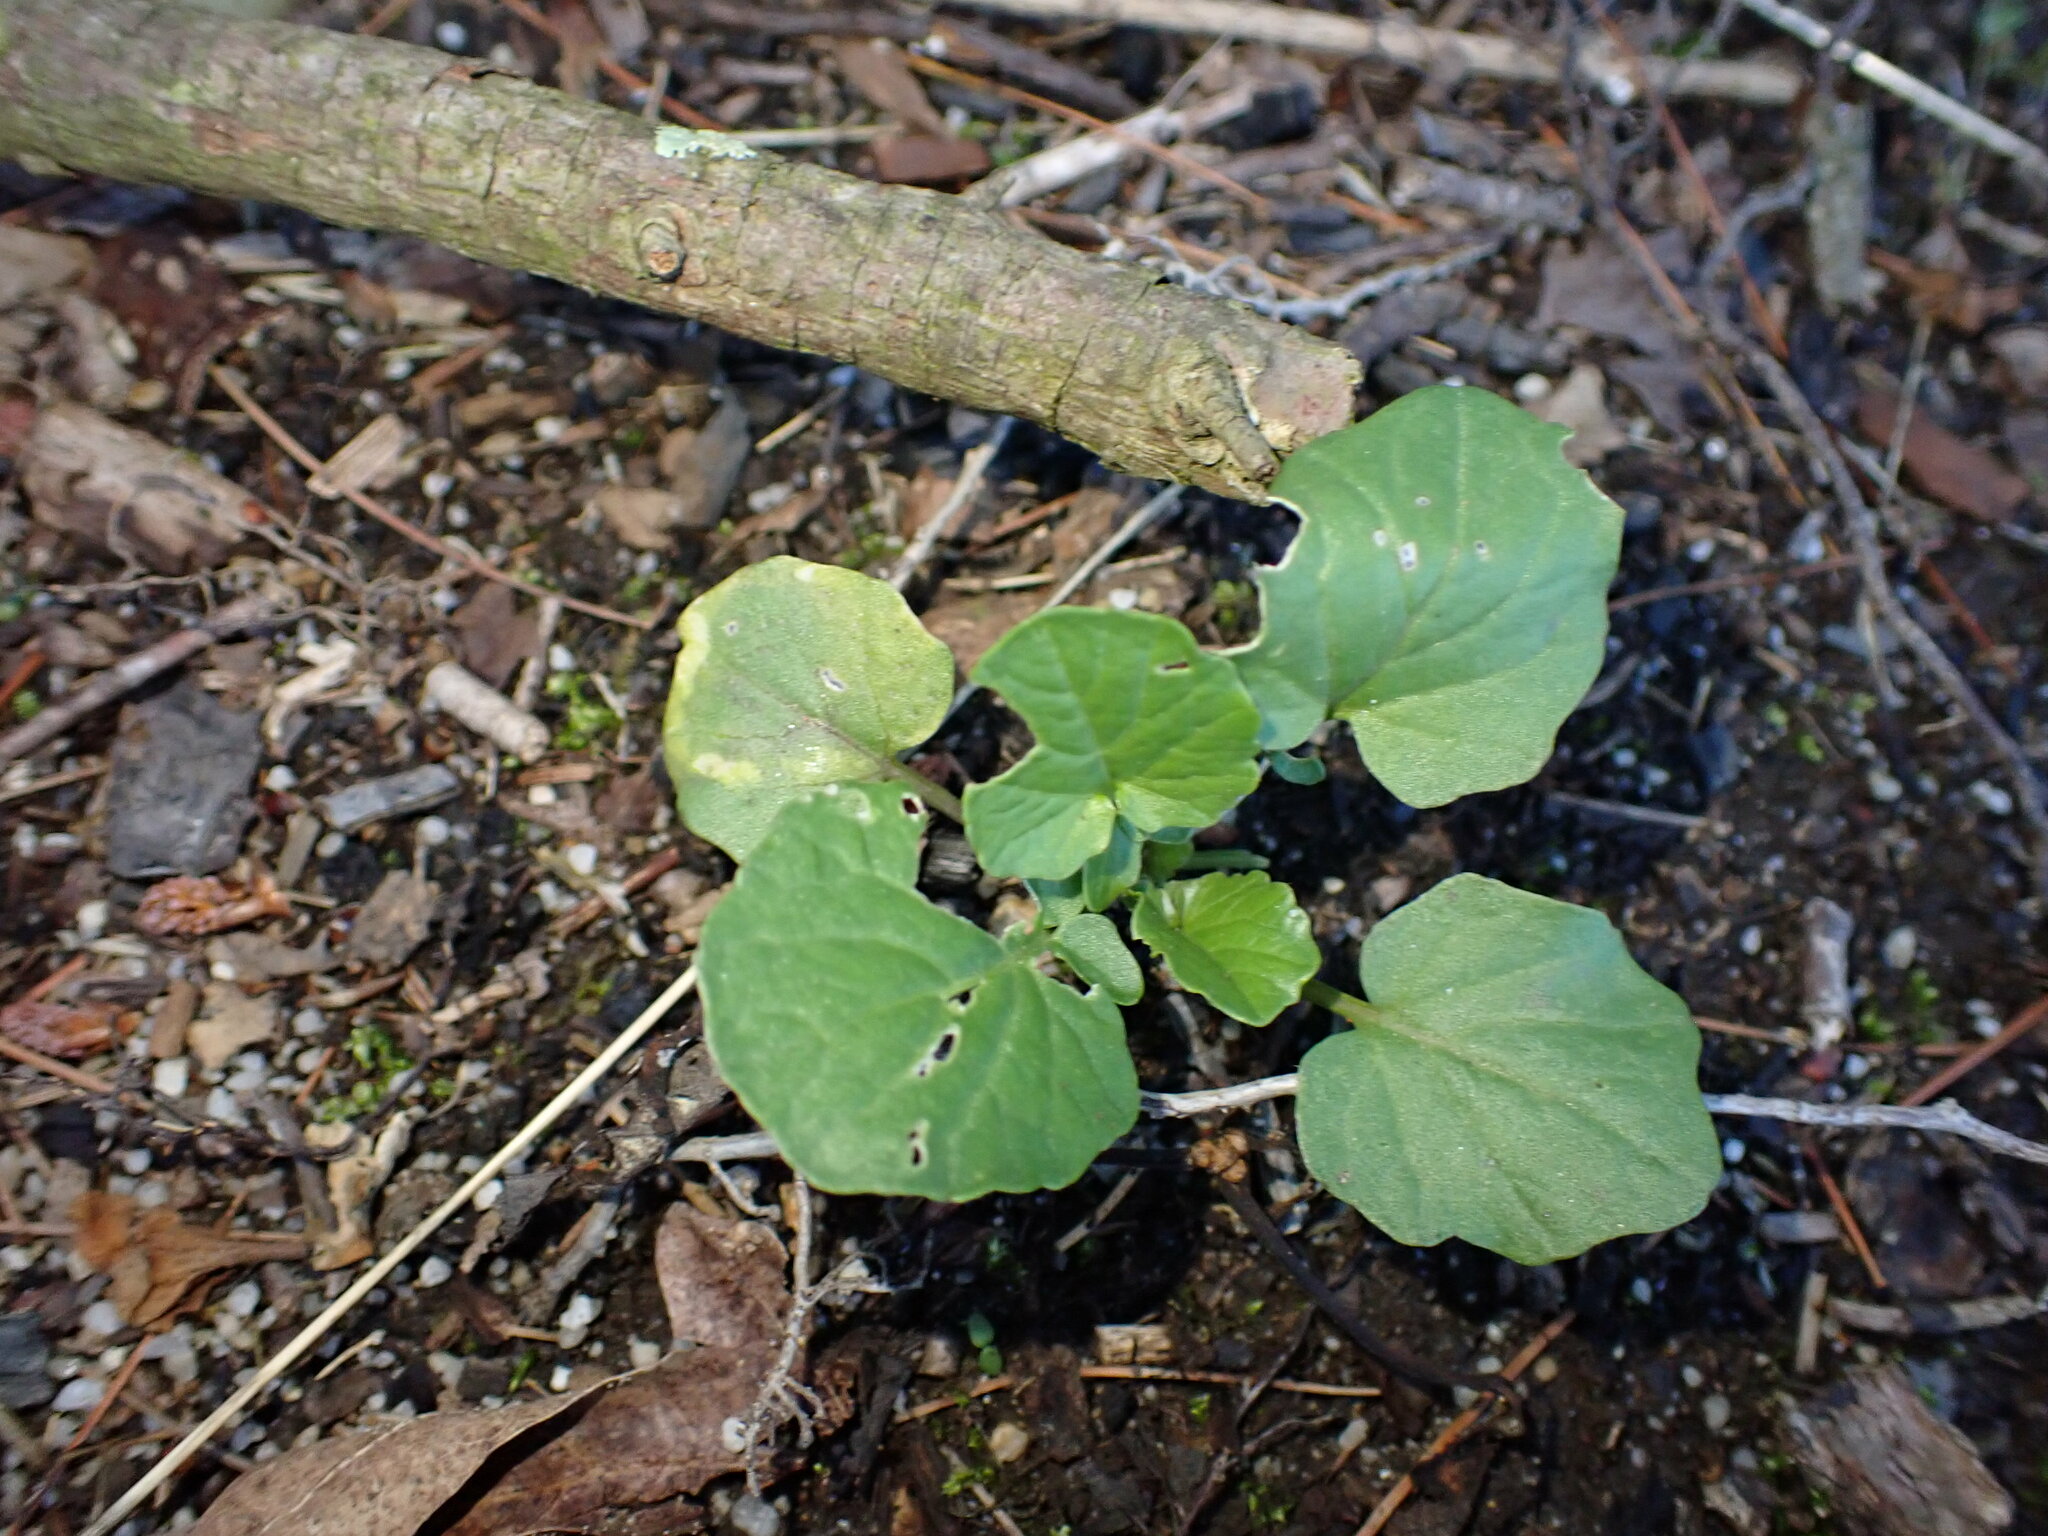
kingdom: Animalia
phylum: Arthropoda
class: Insecta
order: Diptera
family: Agromyzidae
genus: Liriomyza
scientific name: Liriomyza brassicae
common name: Serpentine leaf miner
